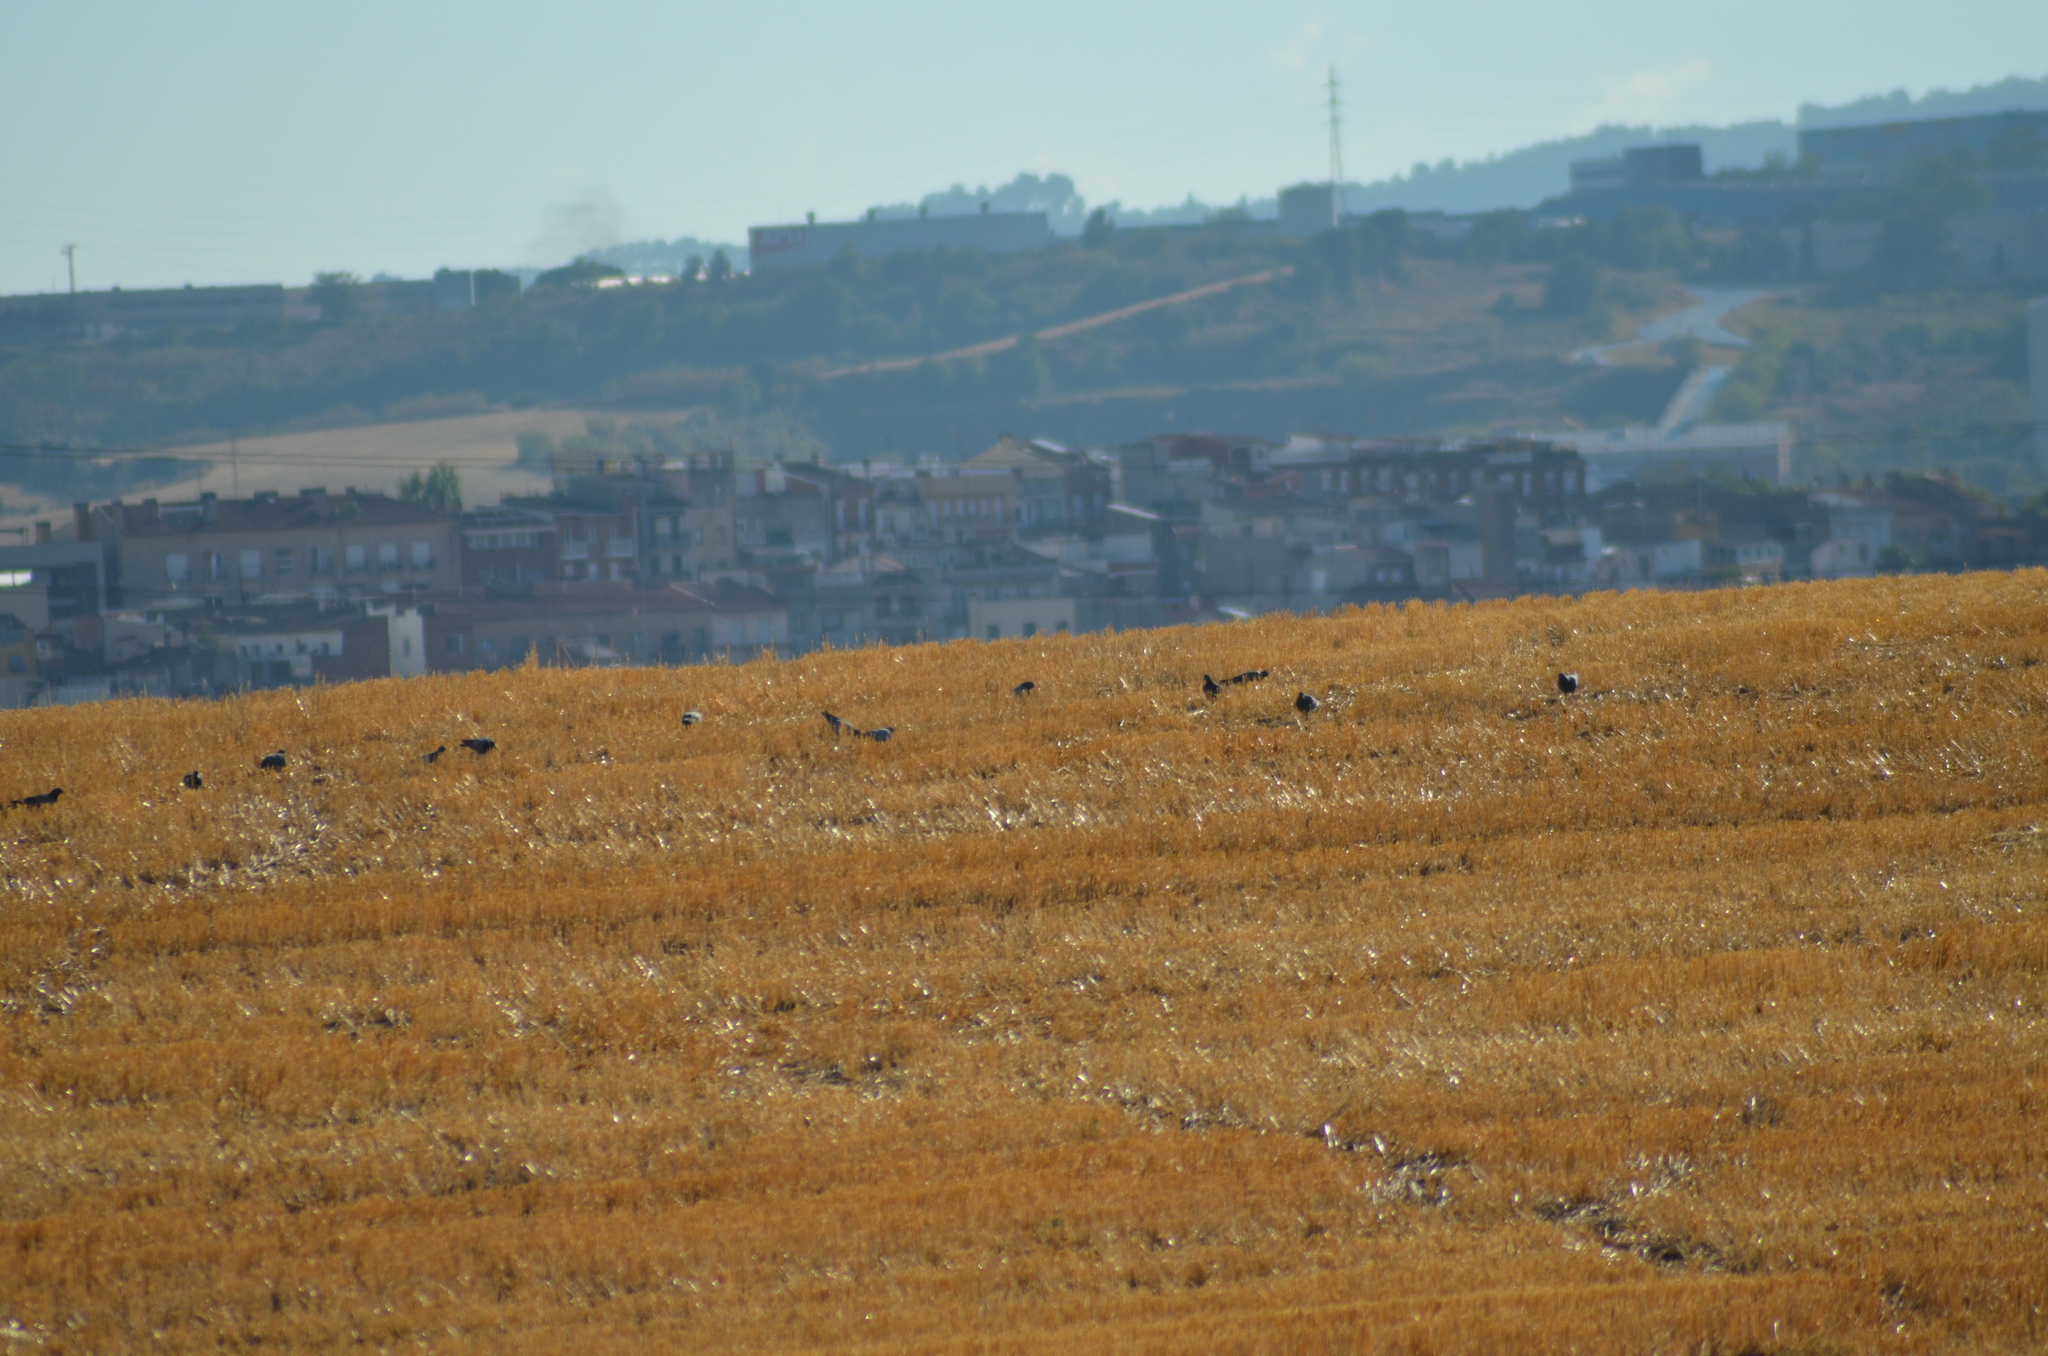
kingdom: Animalia
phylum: Chordata
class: Aves
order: Columbiformes
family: Columbidae
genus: Columba
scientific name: Columba livia
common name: Rock pigeon
